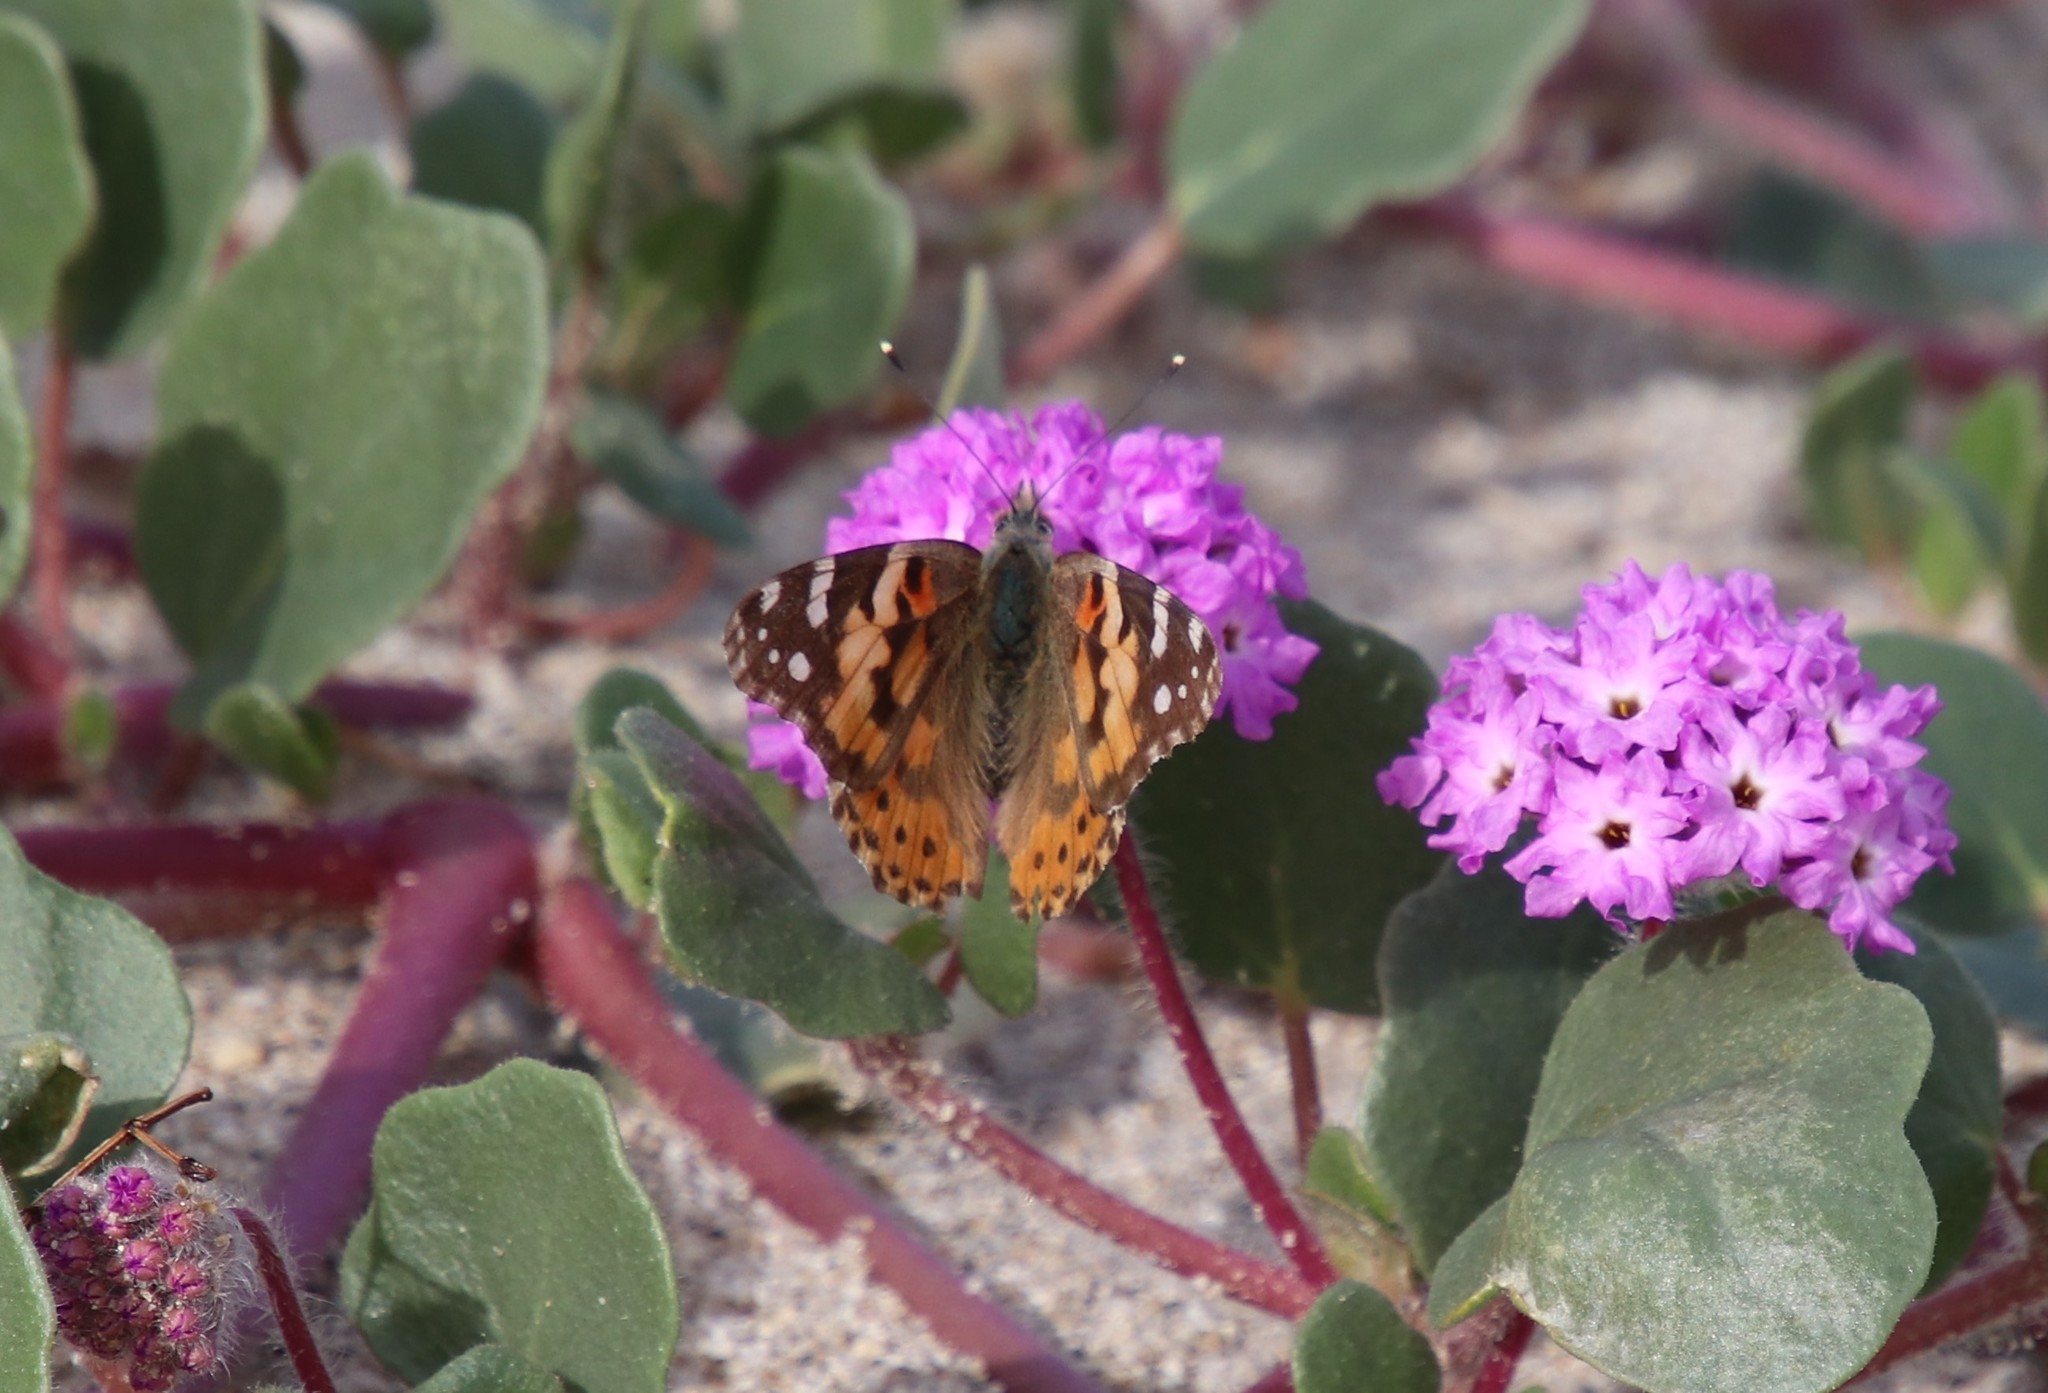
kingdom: Animalia
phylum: Arthropoda
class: Insecta
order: Lepidoptera
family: Nymphalidae
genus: Vanessa
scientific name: Vanessa cardui
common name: Painted lady
